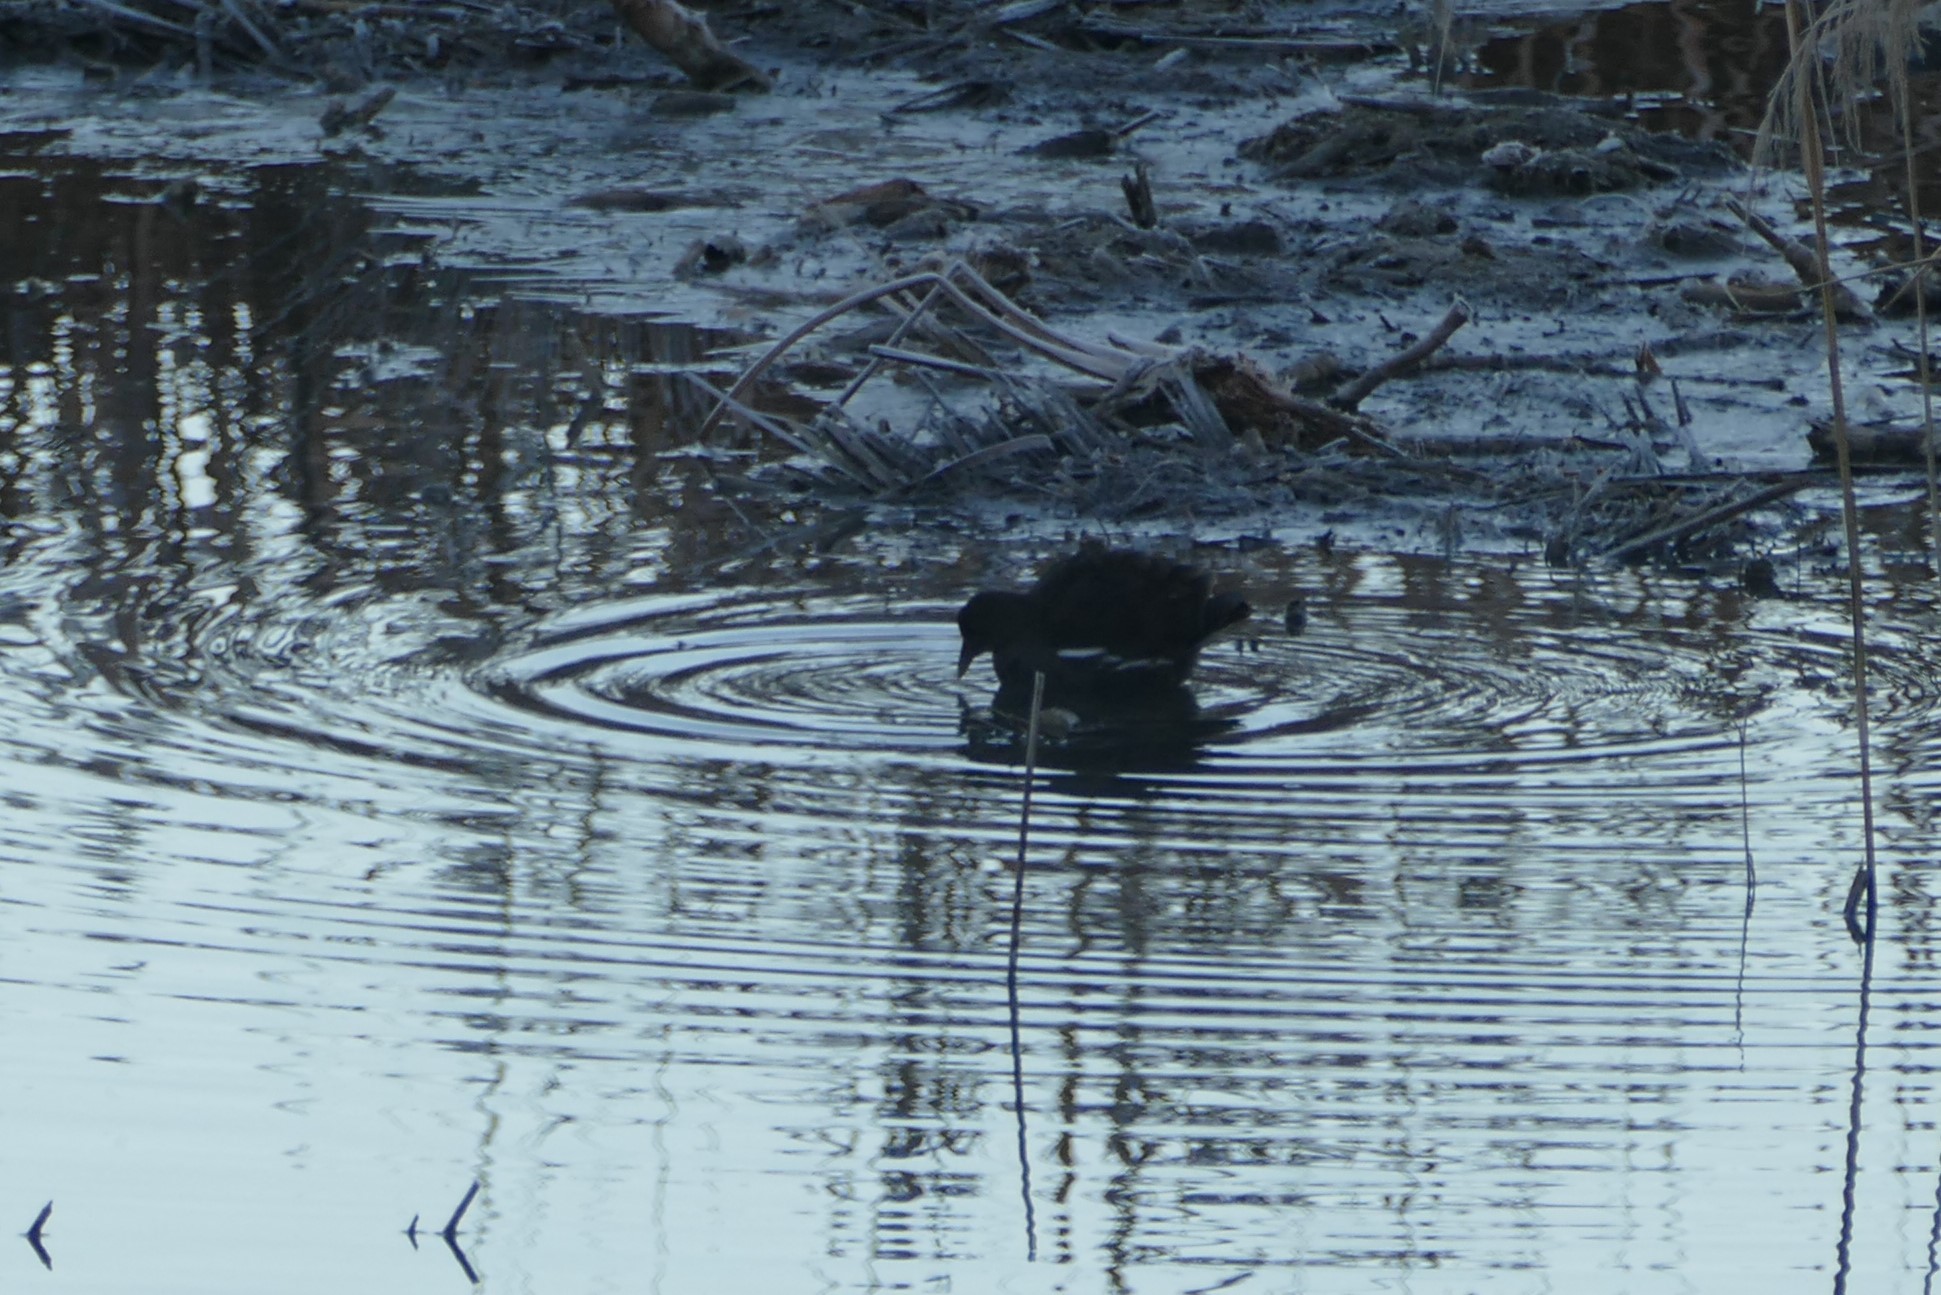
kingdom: Animalia
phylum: Chordata
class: Aves
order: Gruiformes
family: Rallidae
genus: Gallinula
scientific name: Gallinula chloropus
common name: Common moorhen
